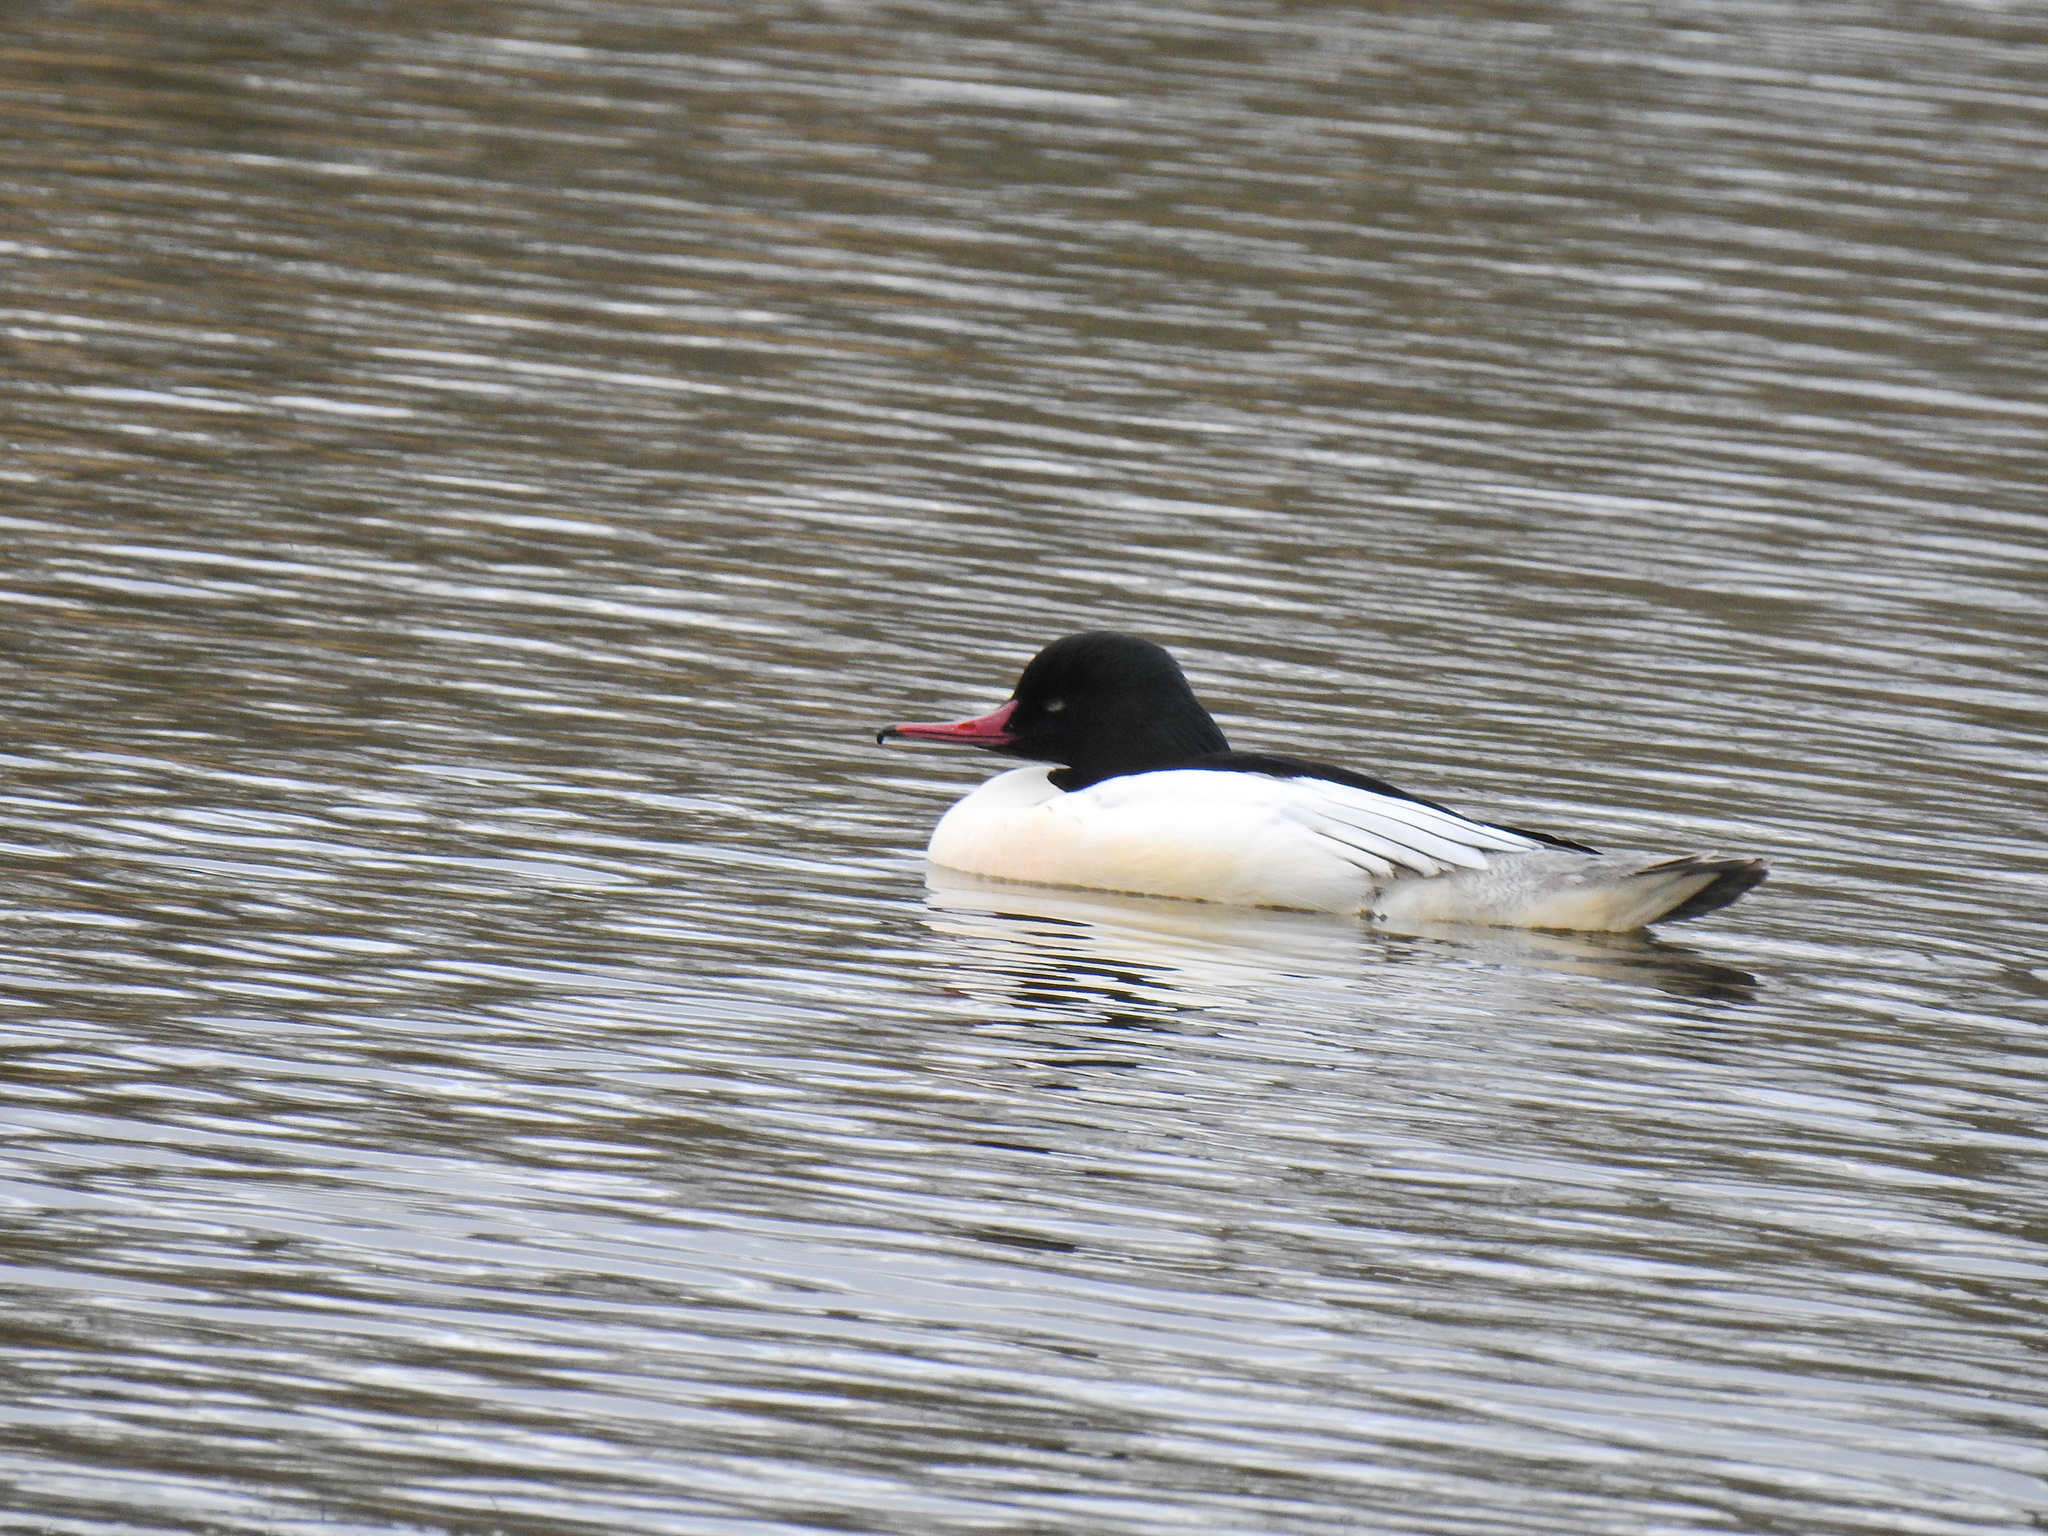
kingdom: Animalia
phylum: Chordata
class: Aves
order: Anseriformes
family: Anatidae
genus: Mergus
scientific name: Mergus merganser
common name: Common merganser
